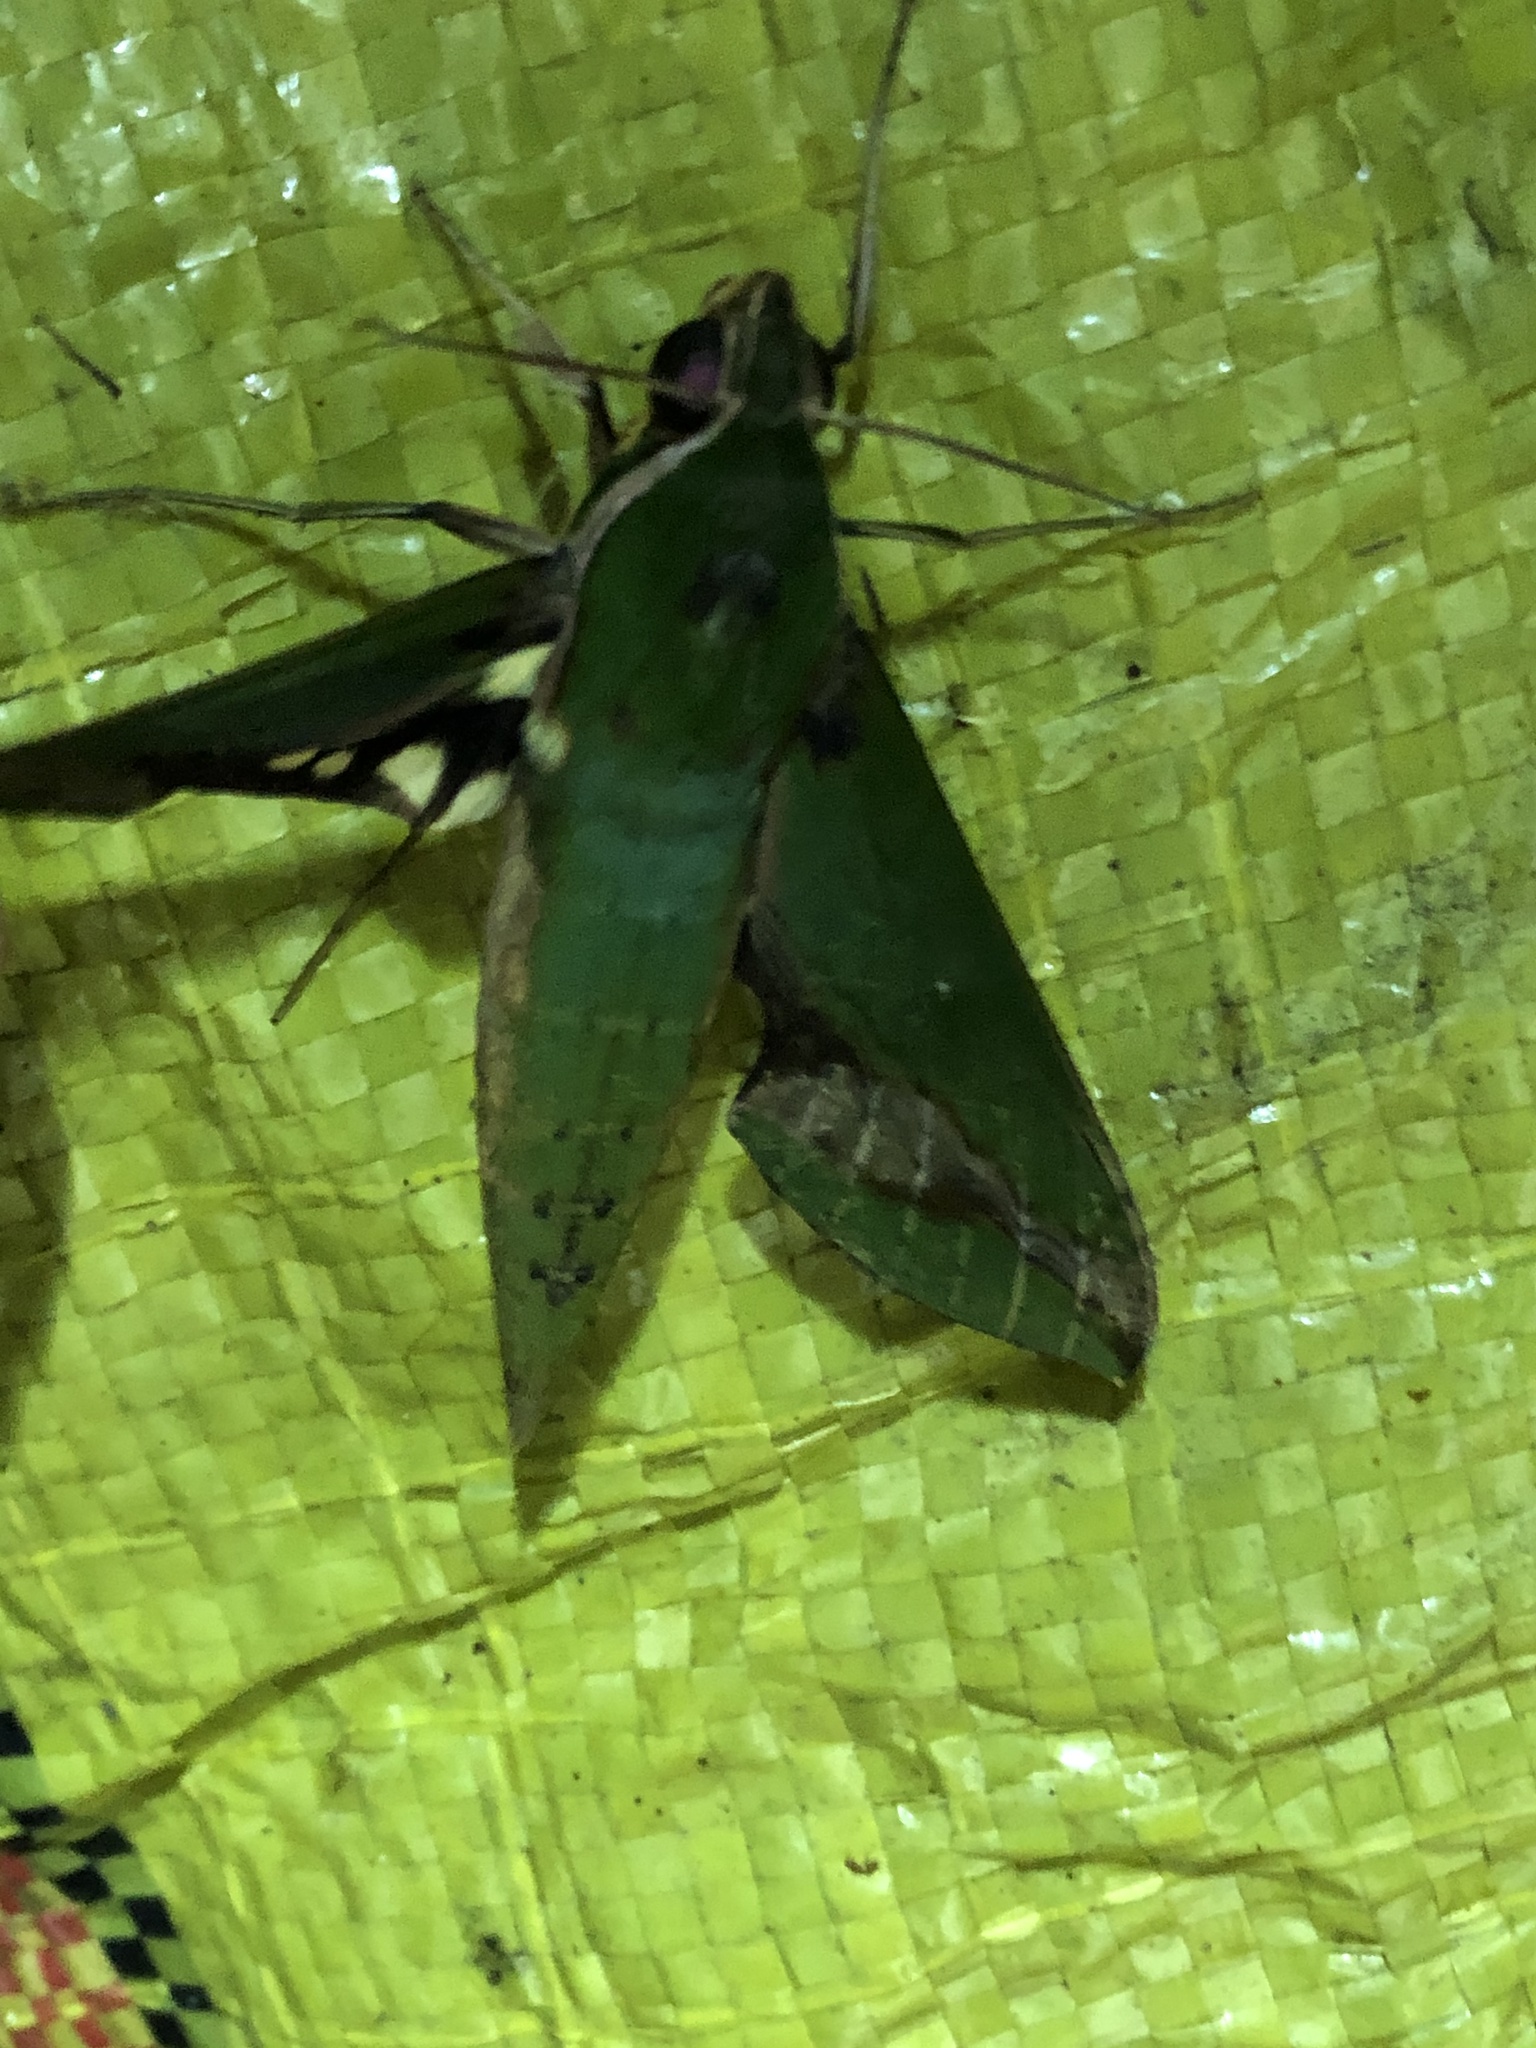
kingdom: Animalia
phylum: Arthropoda
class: Insecta
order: Lepidoptera
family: Sphingidae
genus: Xylophanes
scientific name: Xylophanes chiron
